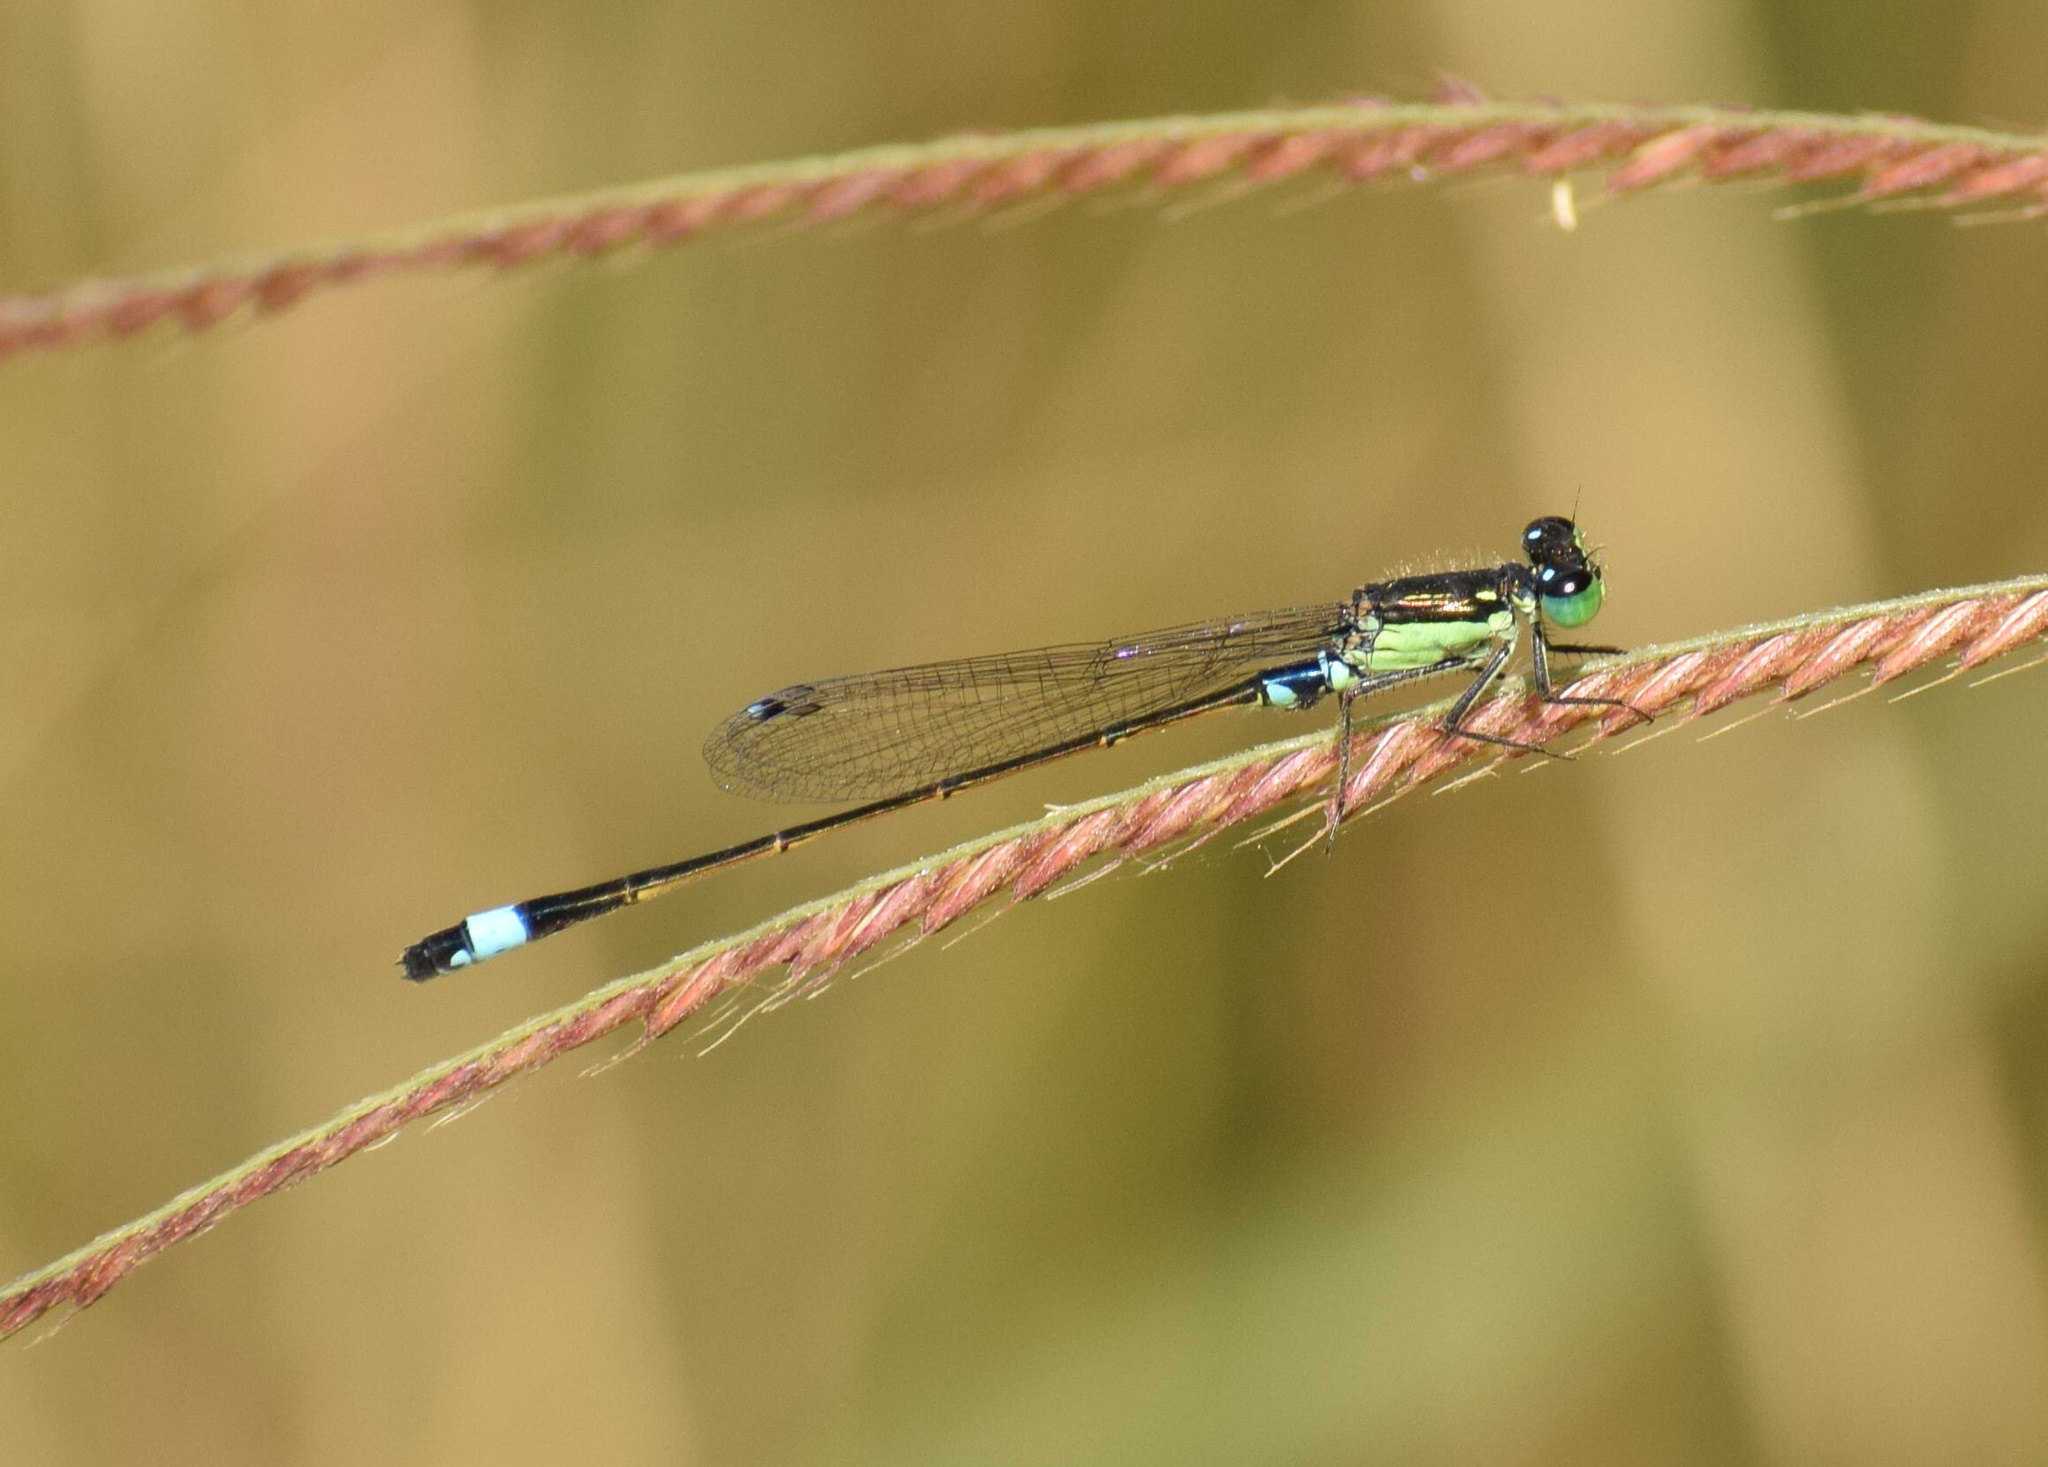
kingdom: Animalia
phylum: Arthropoda
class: Insecta
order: Odonata
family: Coenagrionidae
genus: Ischnura
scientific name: Ischnura senegalensis
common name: Tropical bluetail
